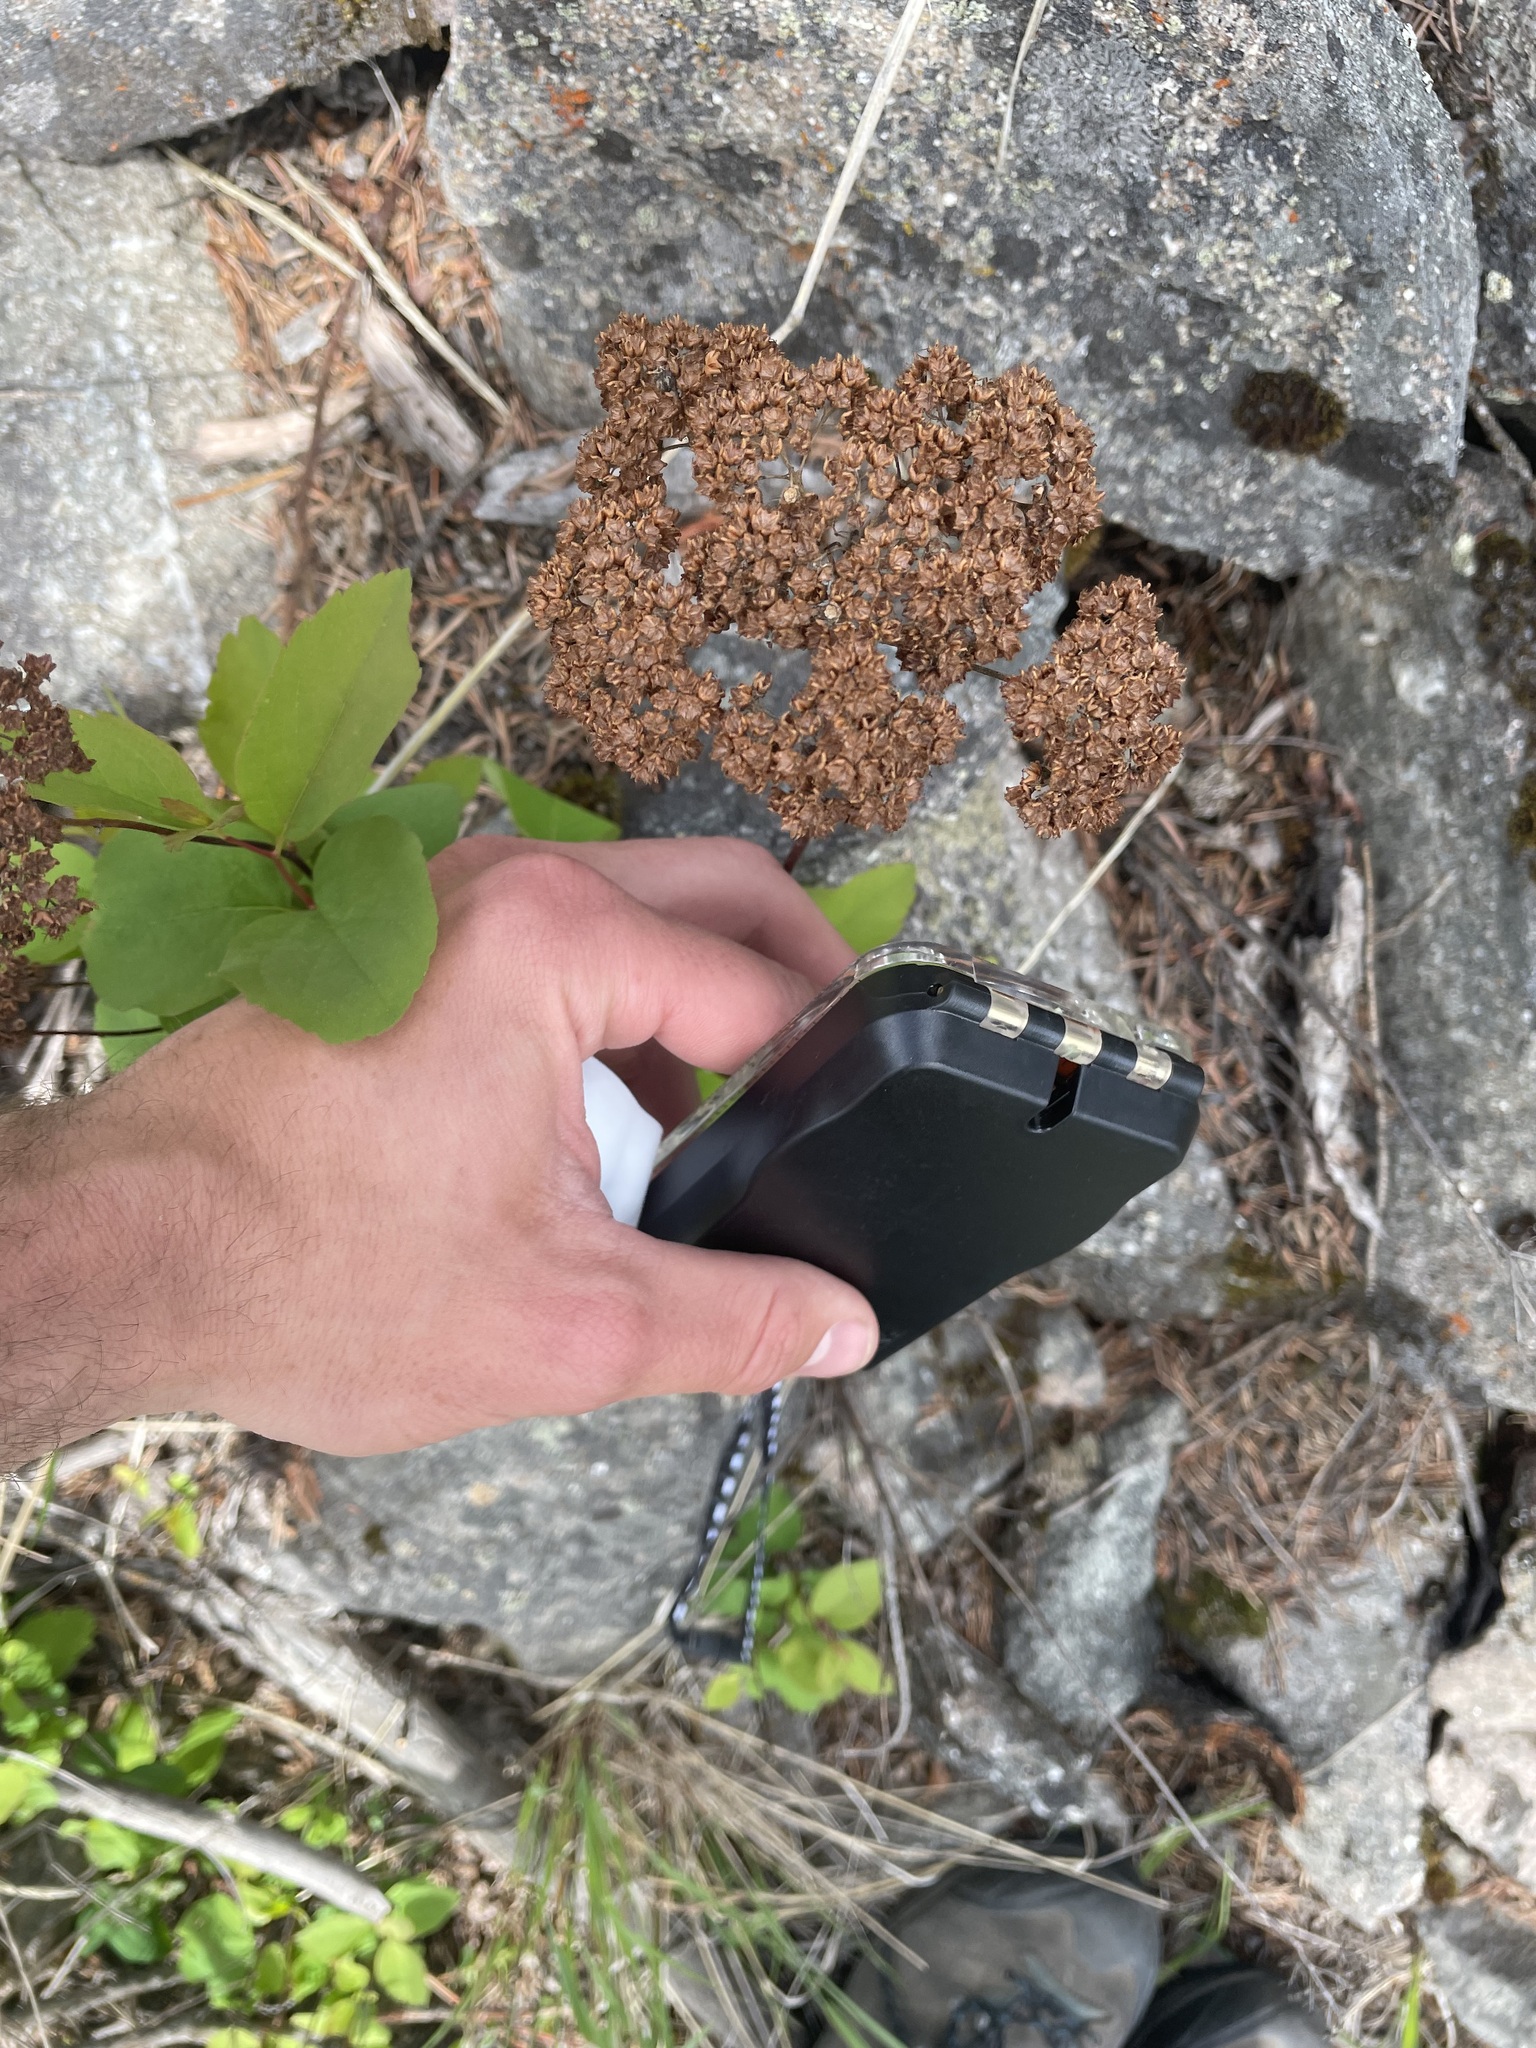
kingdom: Plantae
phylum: Tracheophyta
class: Magnoliopsida
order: Rosales
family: Rosaceae
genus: Spiraea
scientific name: Spiraea lucida
